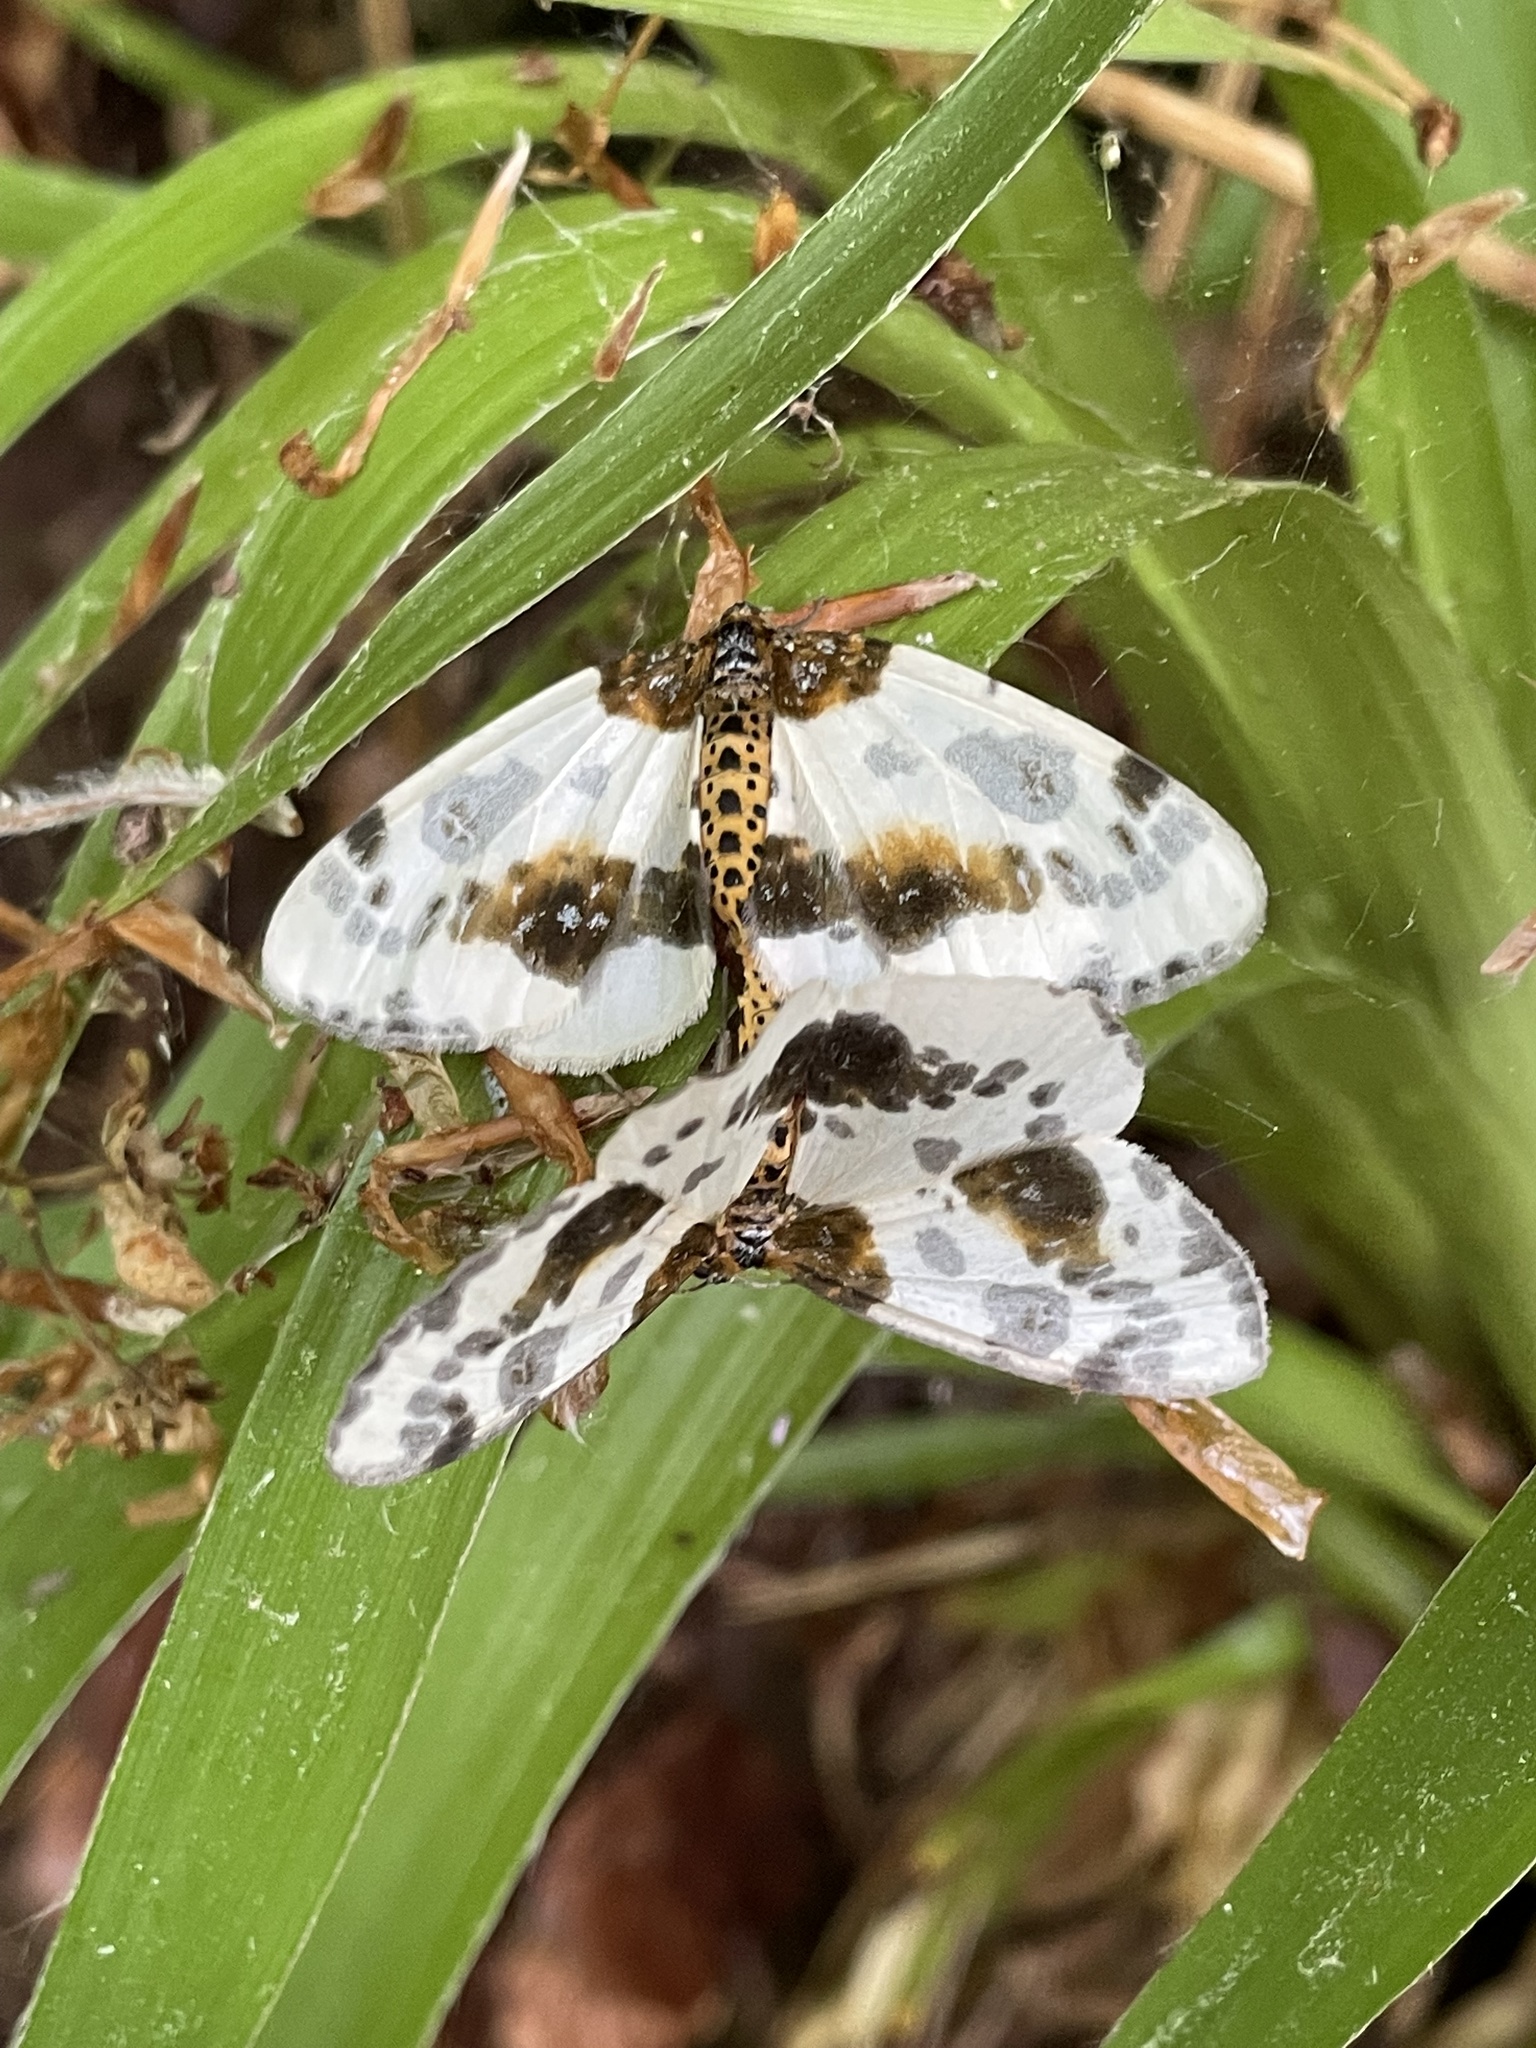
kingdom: Animalia
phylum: Arthropoda
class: Insecta
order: Lepidoptera
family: Geometridae
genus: Abraxas
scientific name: Abraxas sylvata
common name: Clouded magpie
